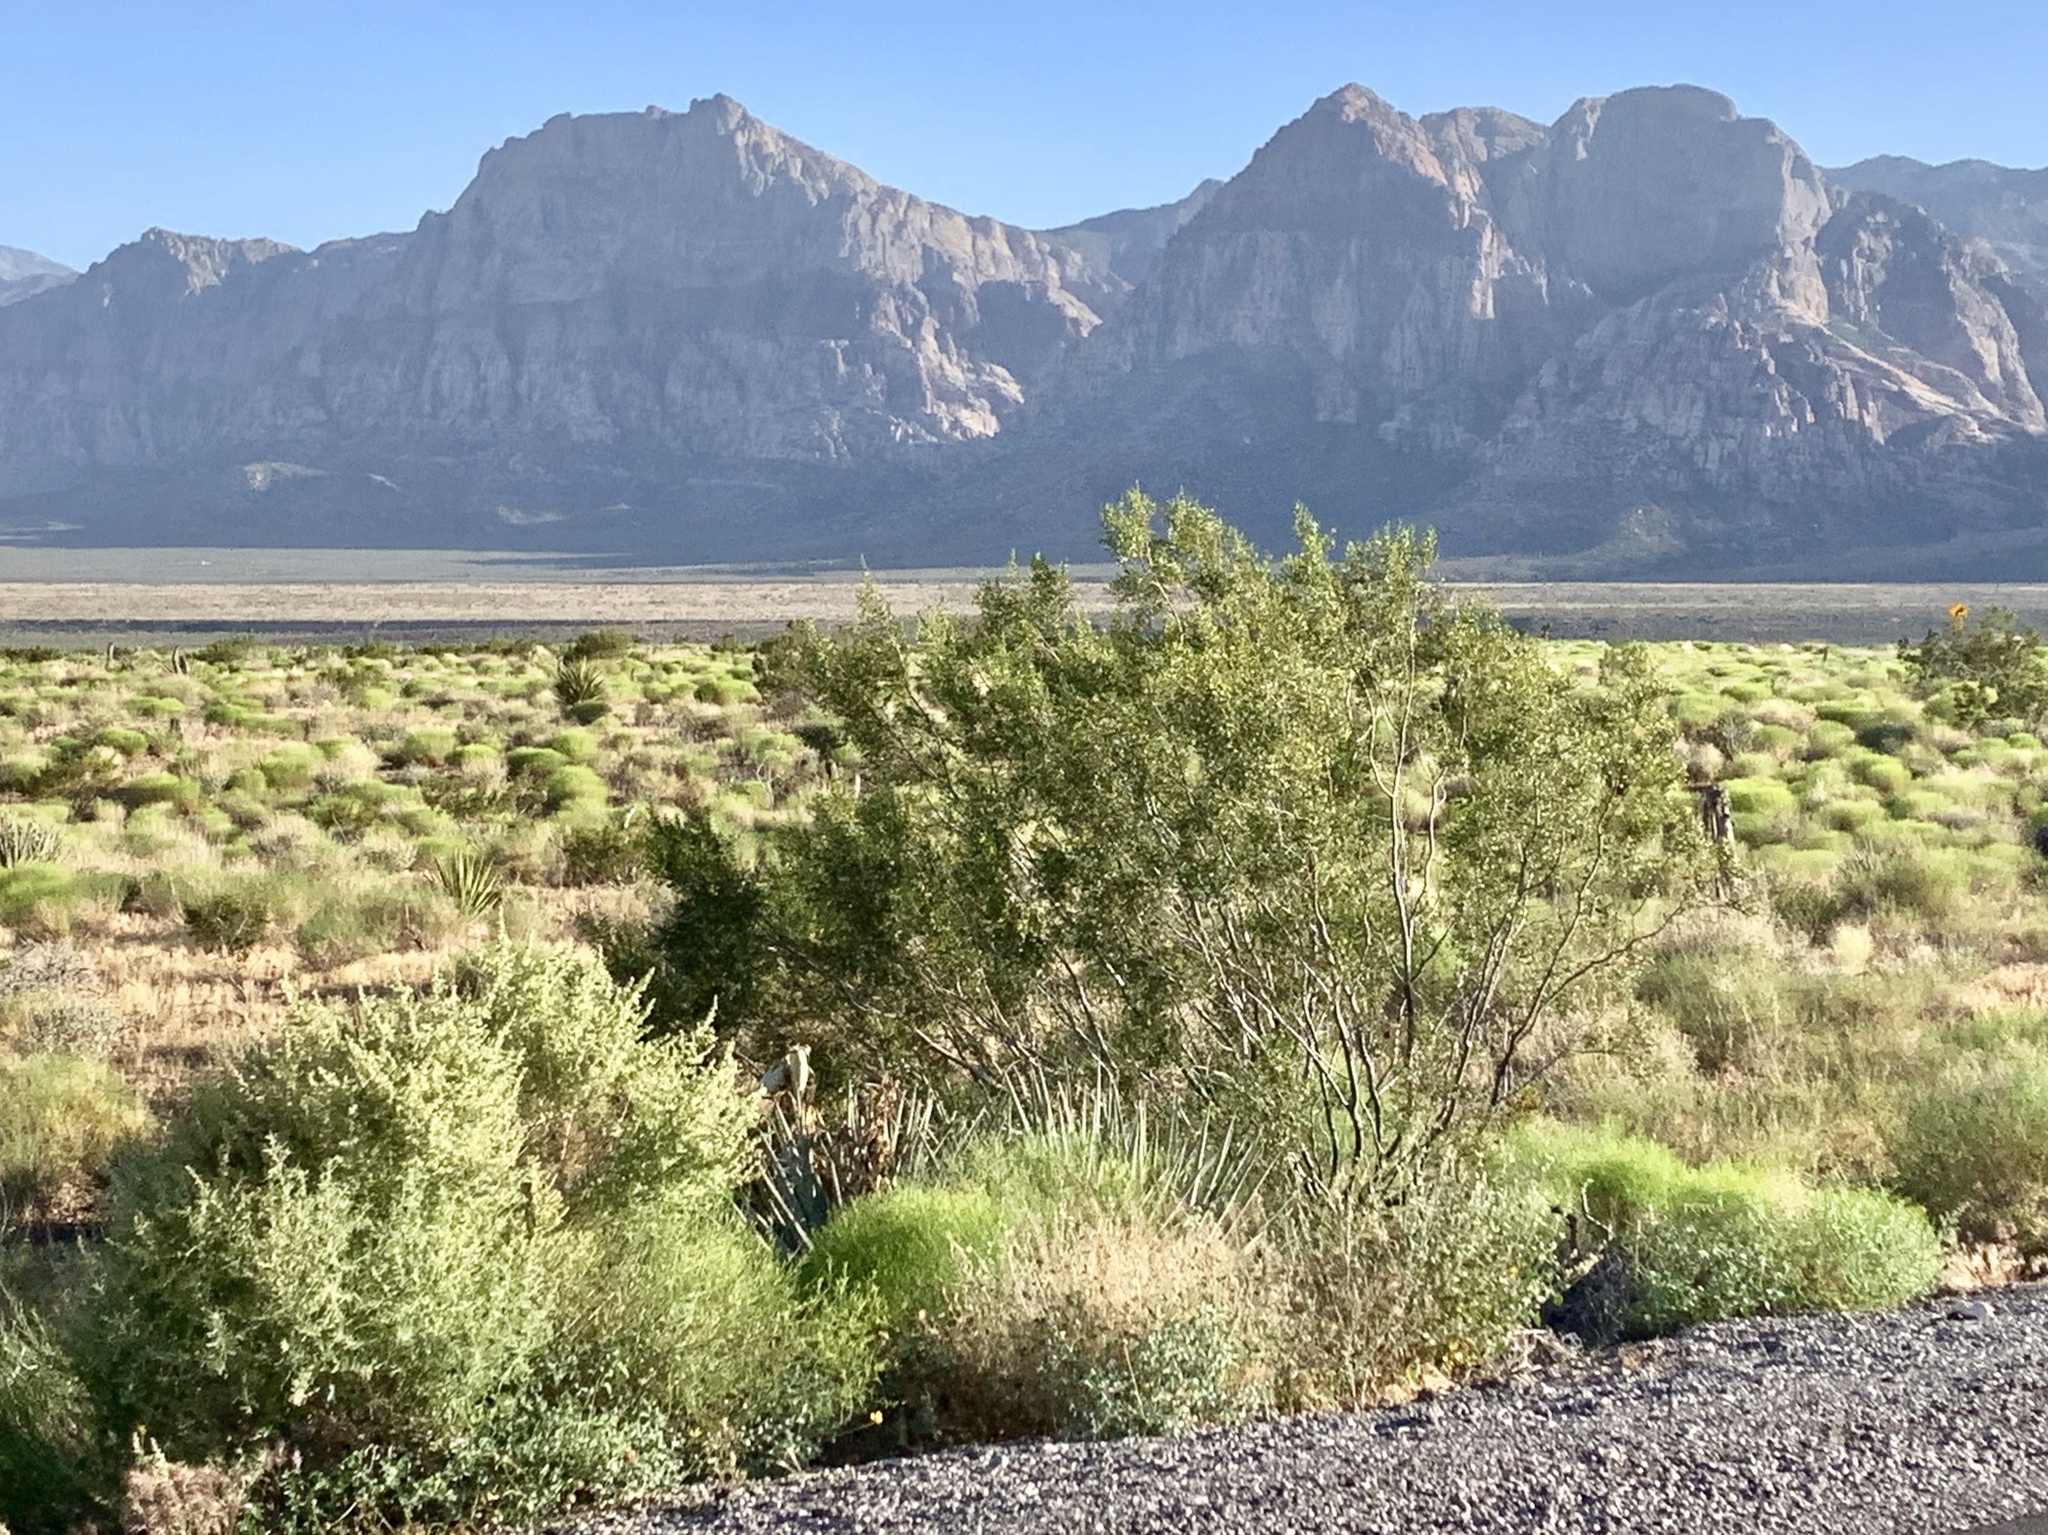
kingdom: Plantae
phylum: Tracheophyta
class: Magnoliopsida
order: Zygophyllales
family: Zygophyllaceae
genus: Larrea
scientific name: Larrea tridentata
